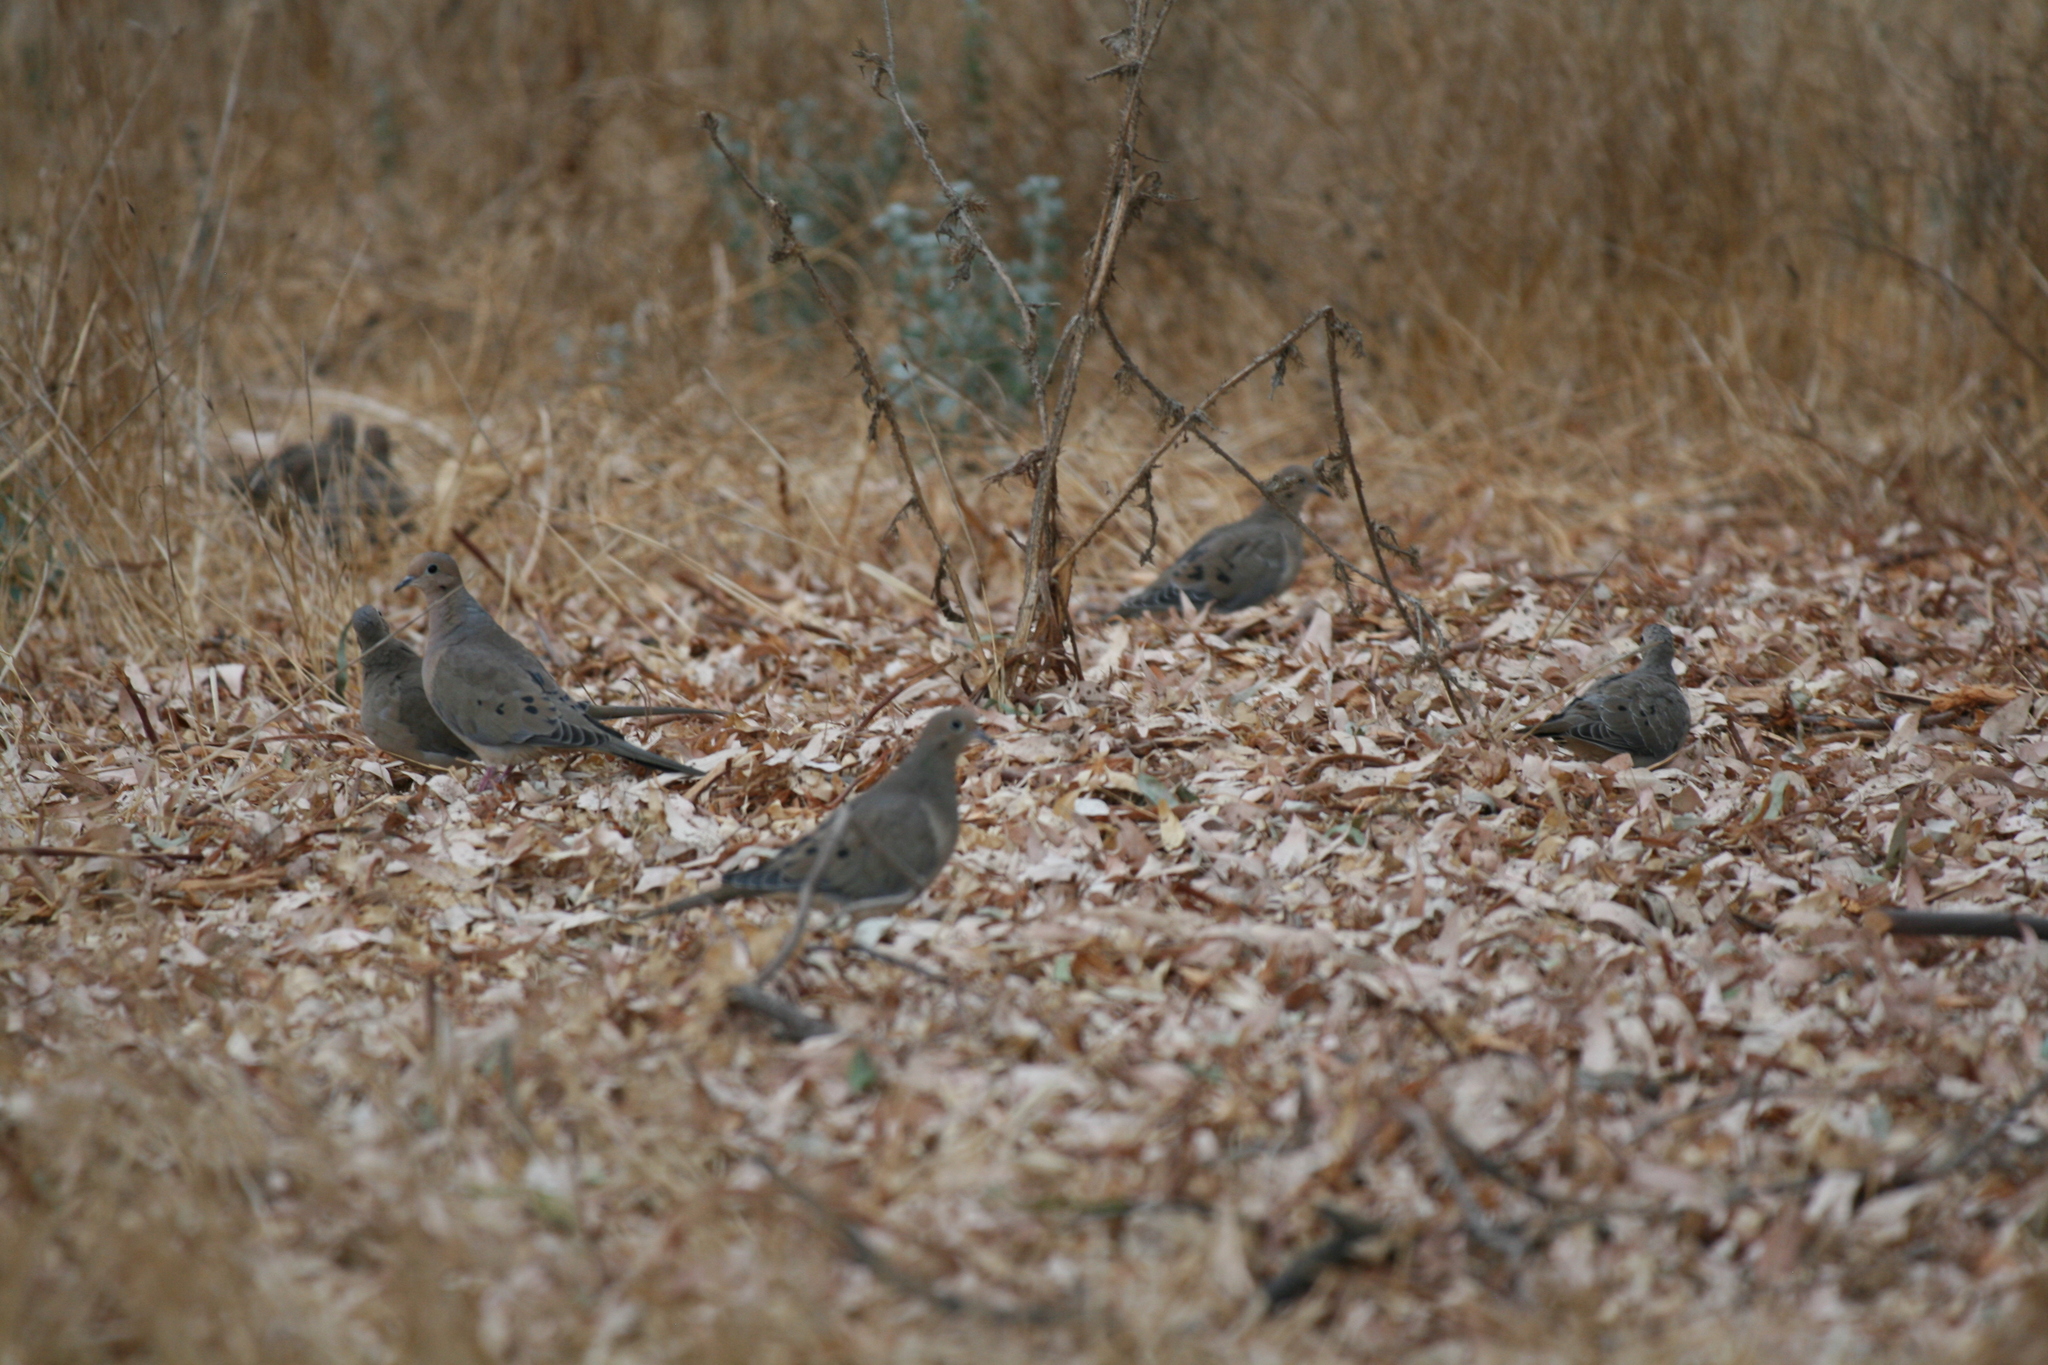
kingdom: Animalia
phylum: Chordata
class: Aves
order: Columbiformes
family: Columbidae
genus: Zenaida
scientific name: Zenaida macroura
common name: Mourning dove
